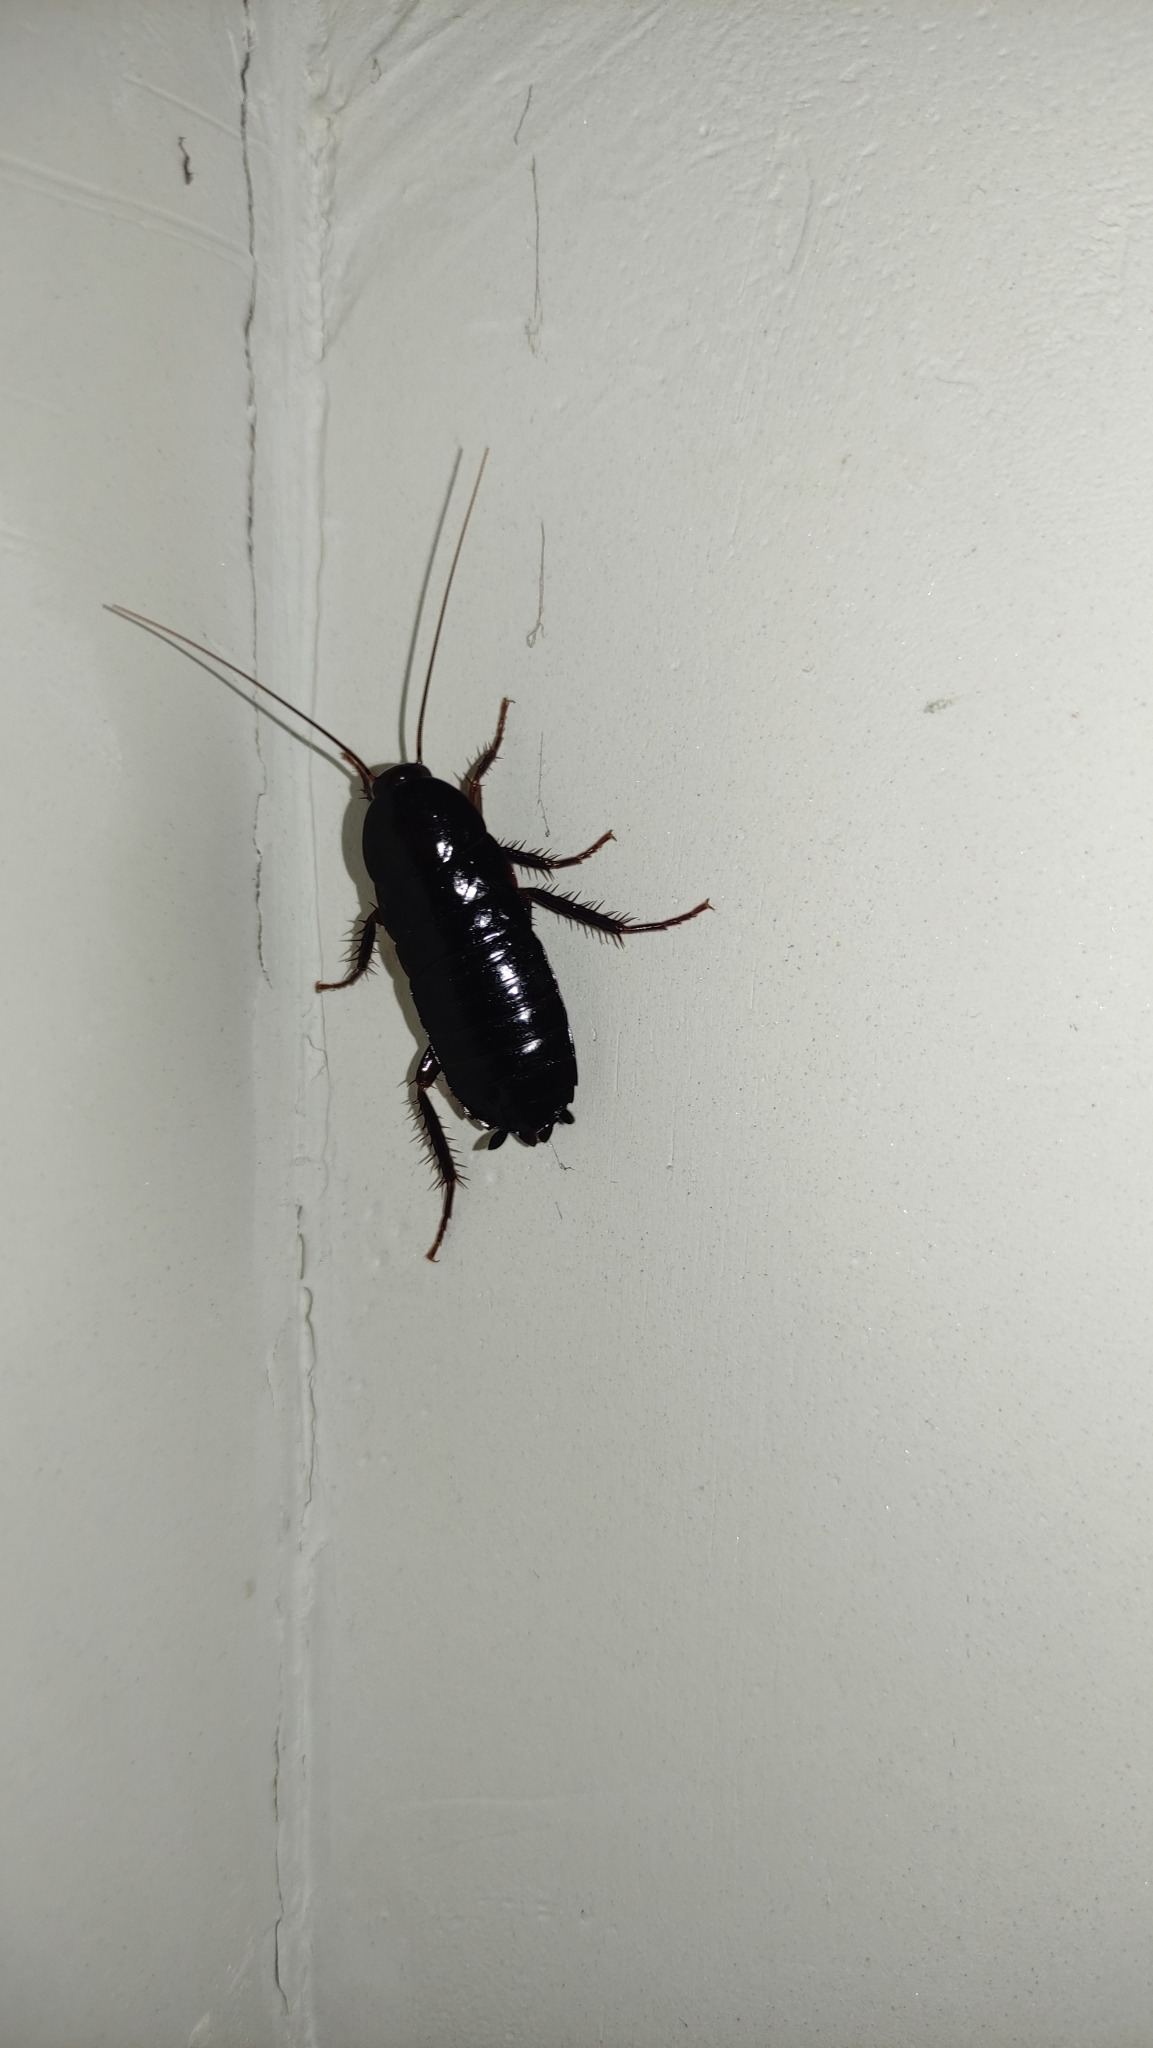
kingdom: Animalia
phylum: Arthropoda
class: Insecta
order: Blattodea
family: Blattidae
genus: Blatta
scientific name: Blatta orientalis
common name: Oriental cockroach
